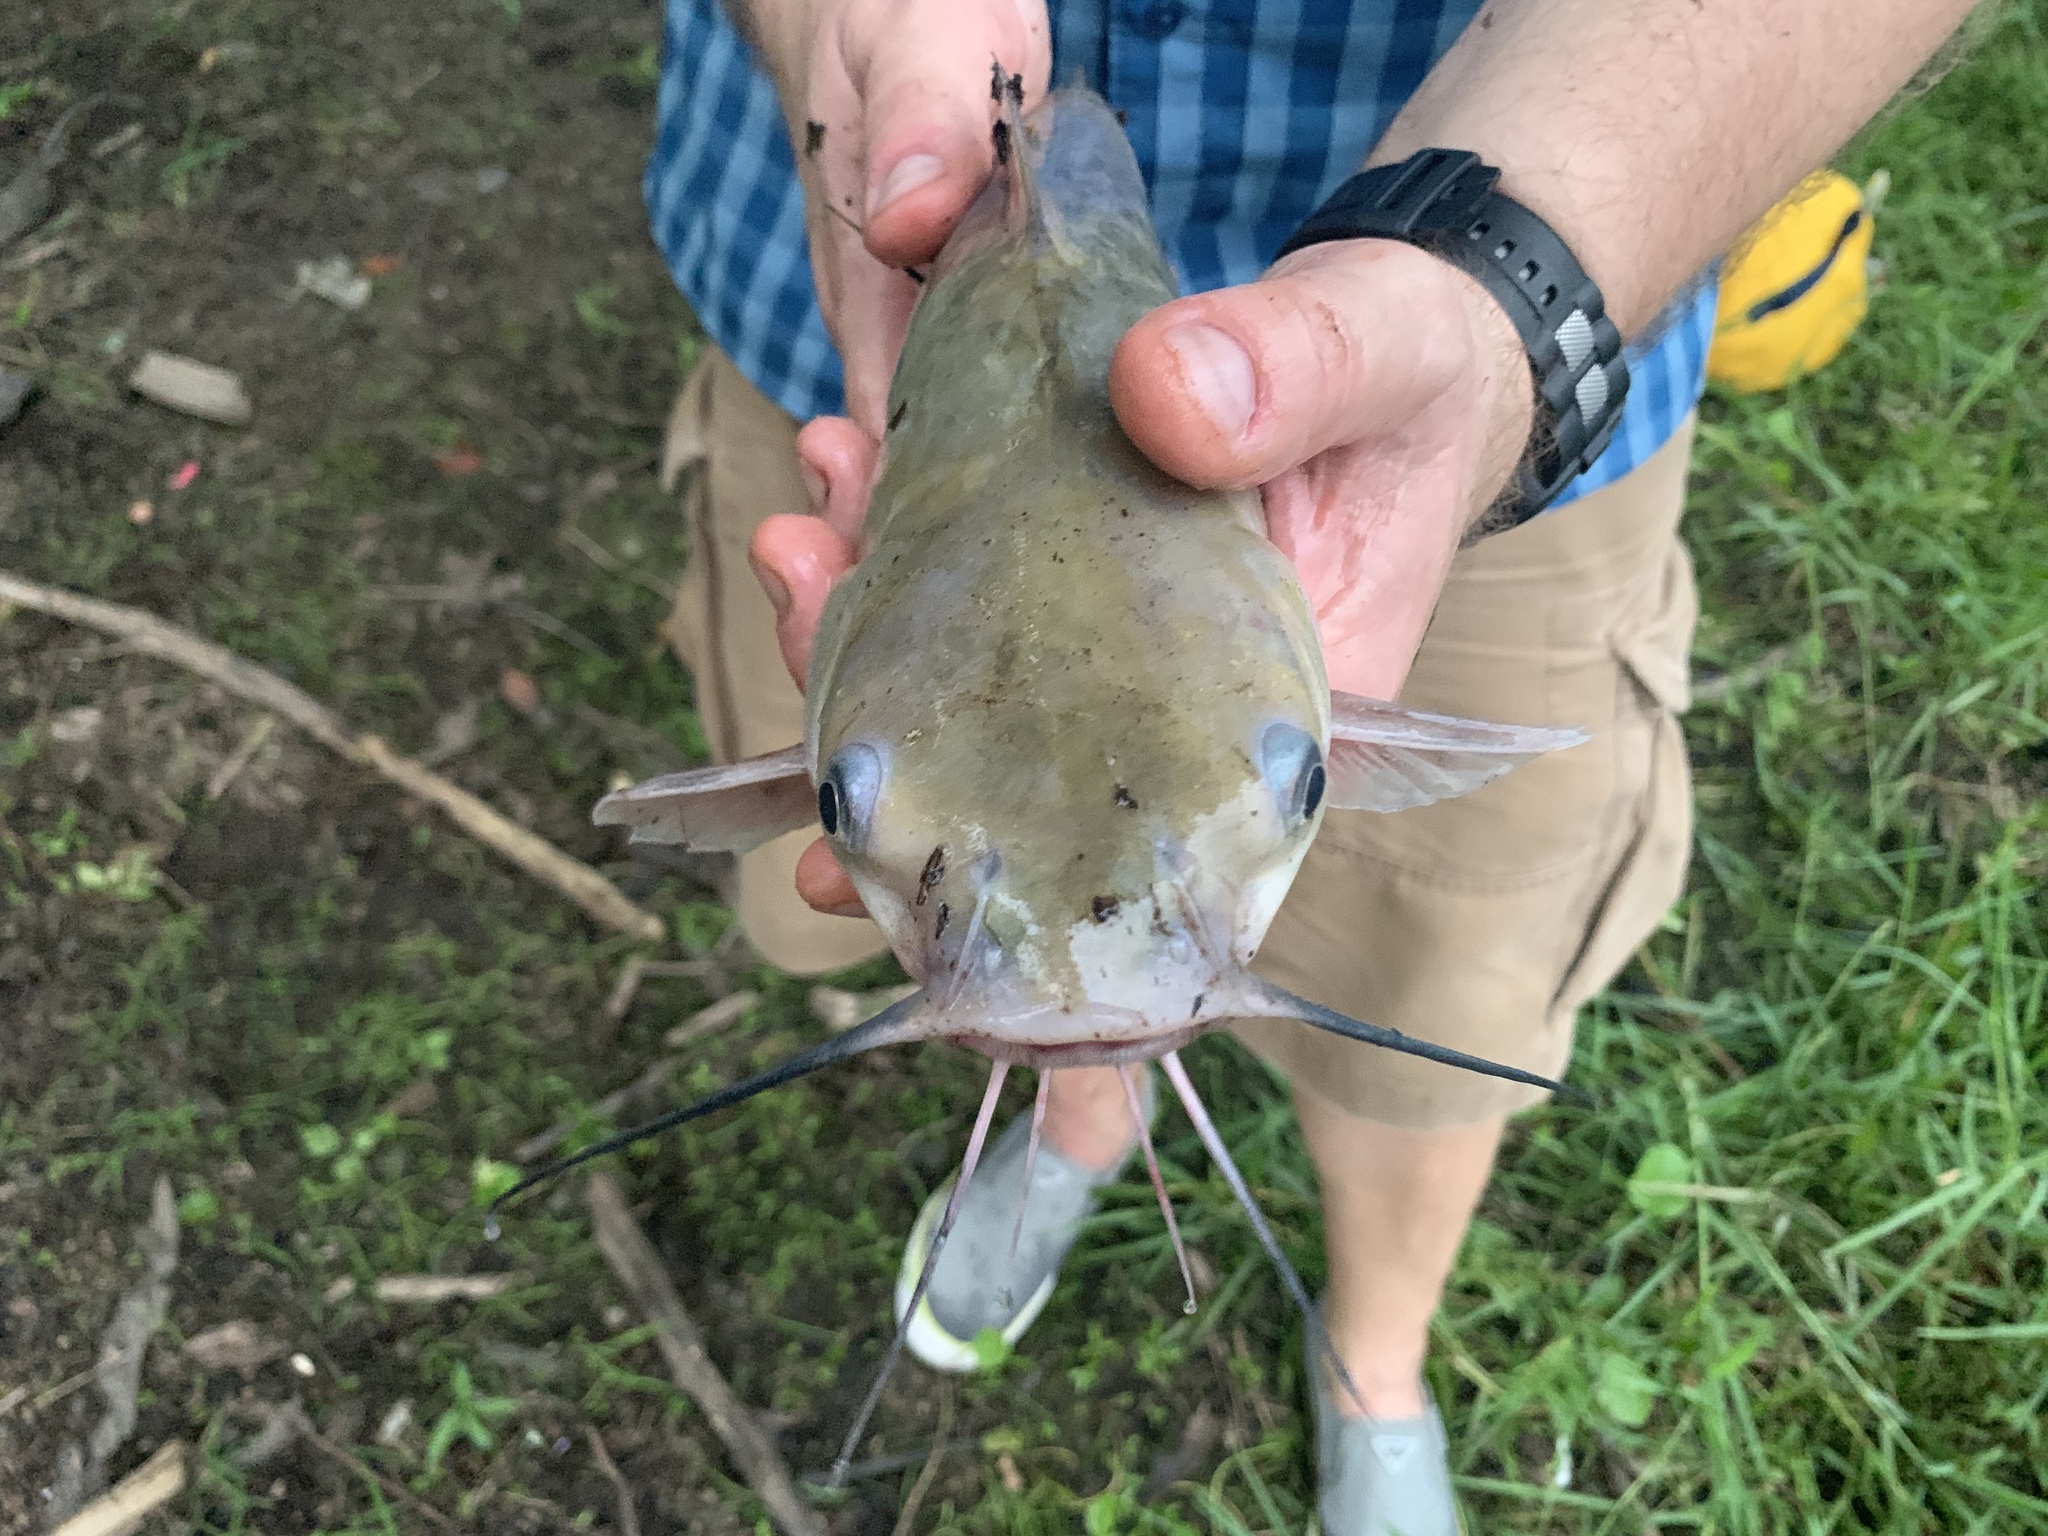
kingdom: Animalia
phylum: Chordata
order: Siluriformes
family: Ictaluridae
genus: Ictalurus
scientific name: Ictalurus punctatus
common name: Channel catfish
